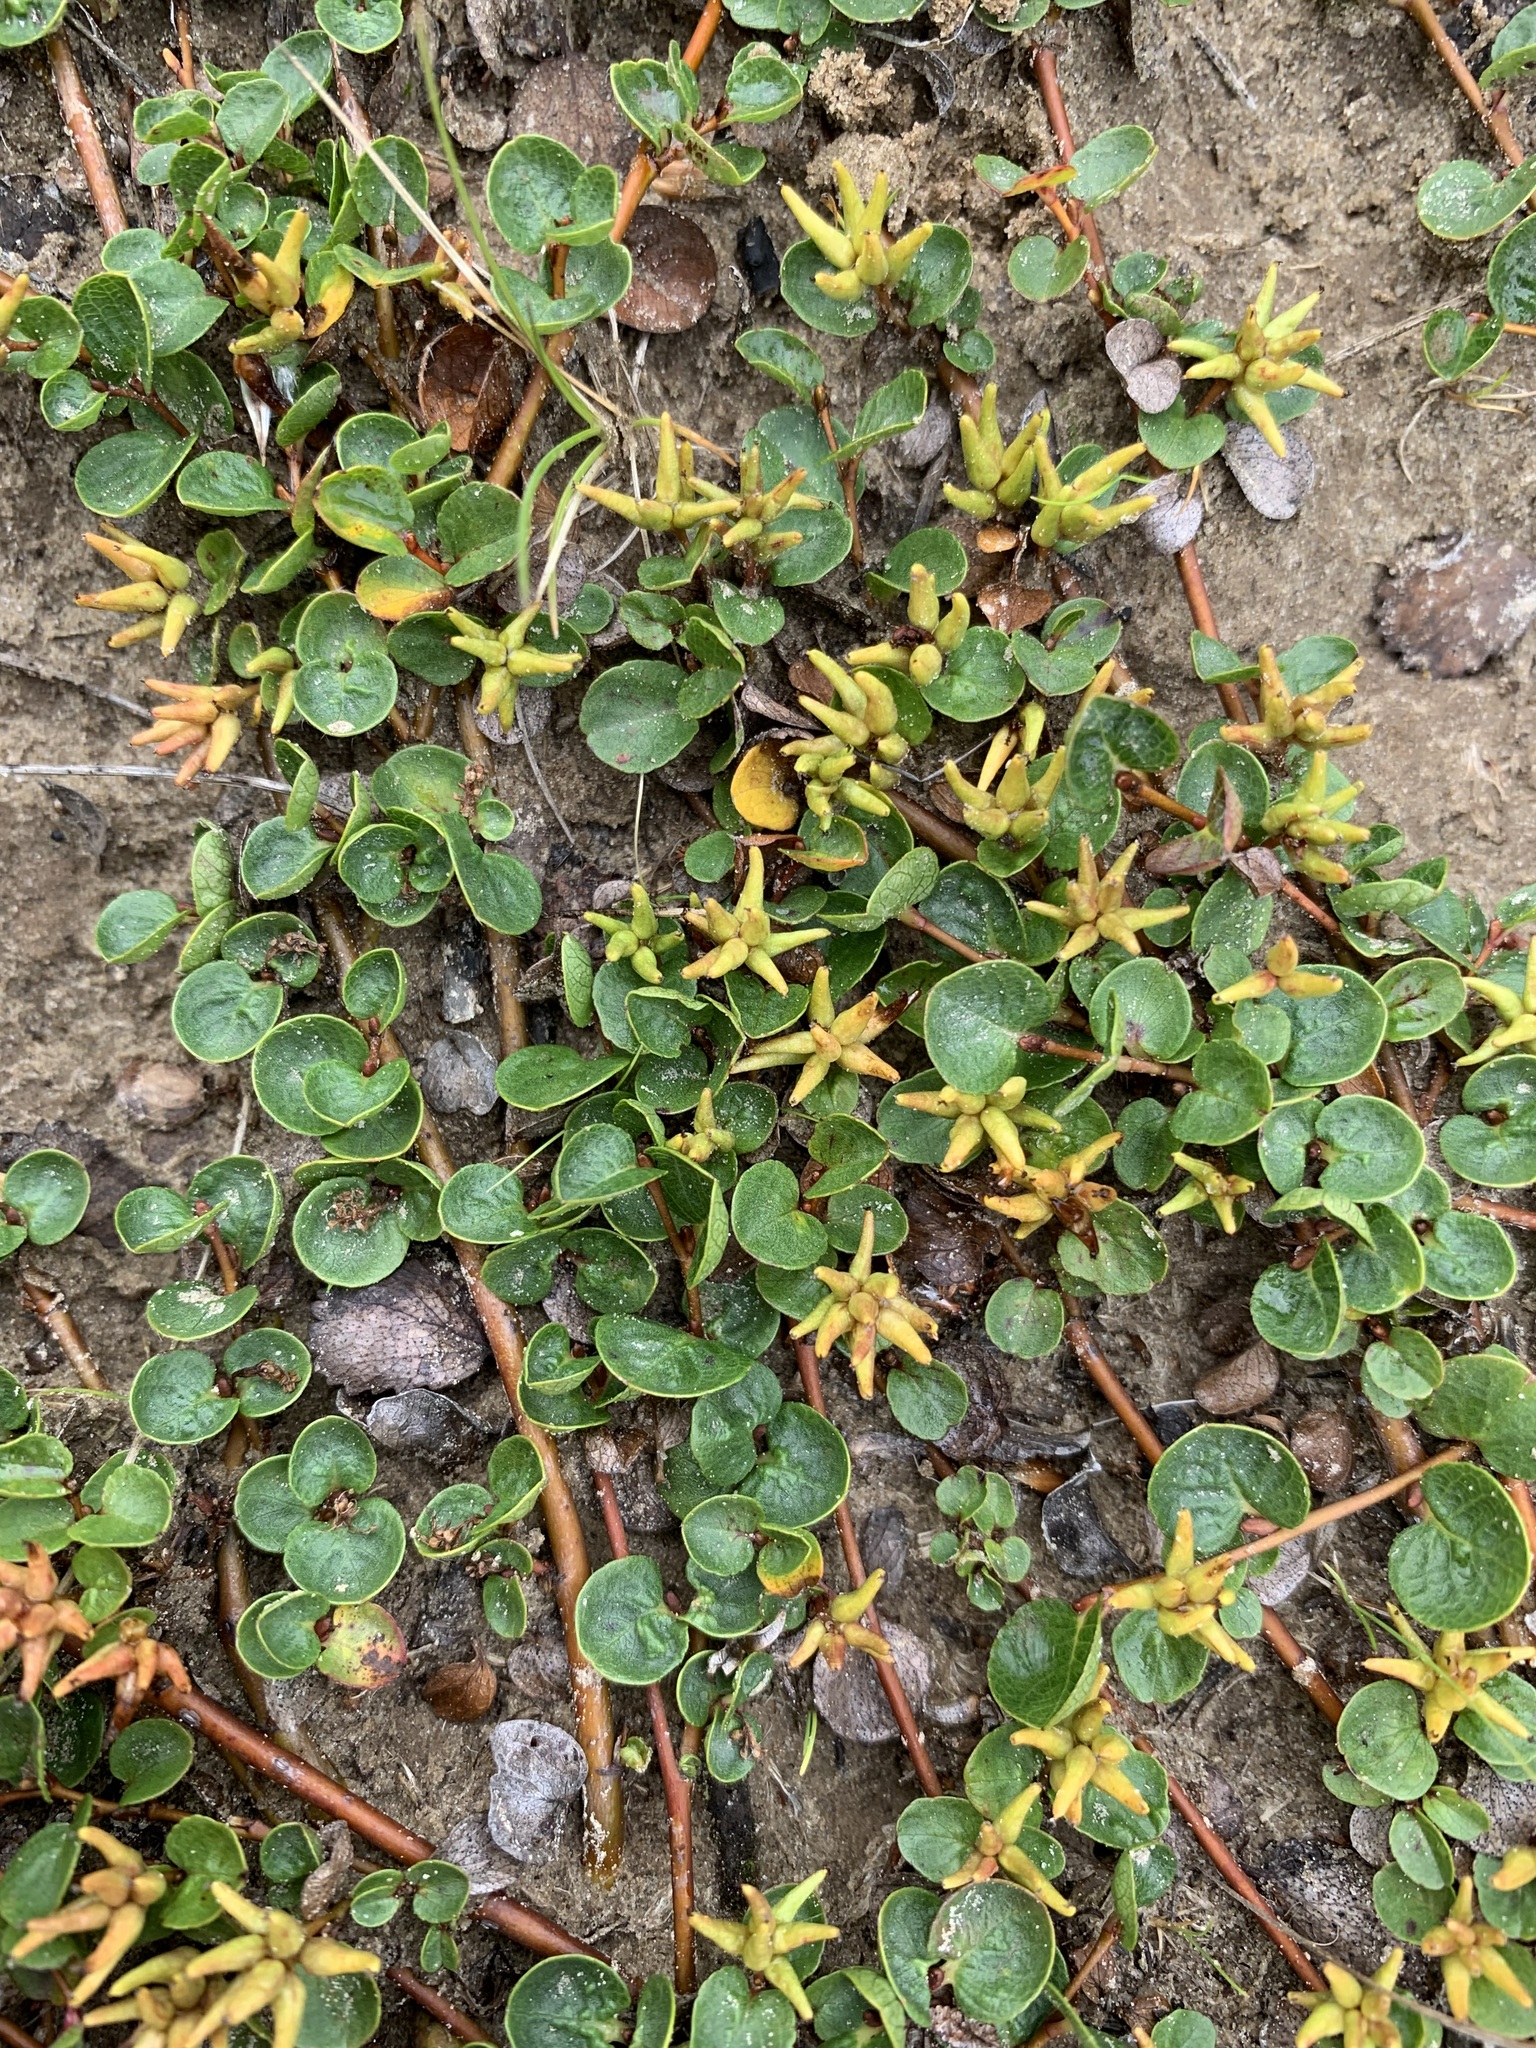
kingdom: Plantae
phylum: Tracheophyta
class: Magnoliopsida
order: Malpighiales
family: Salicaceae
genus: Salix
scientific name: Salix nummularia
